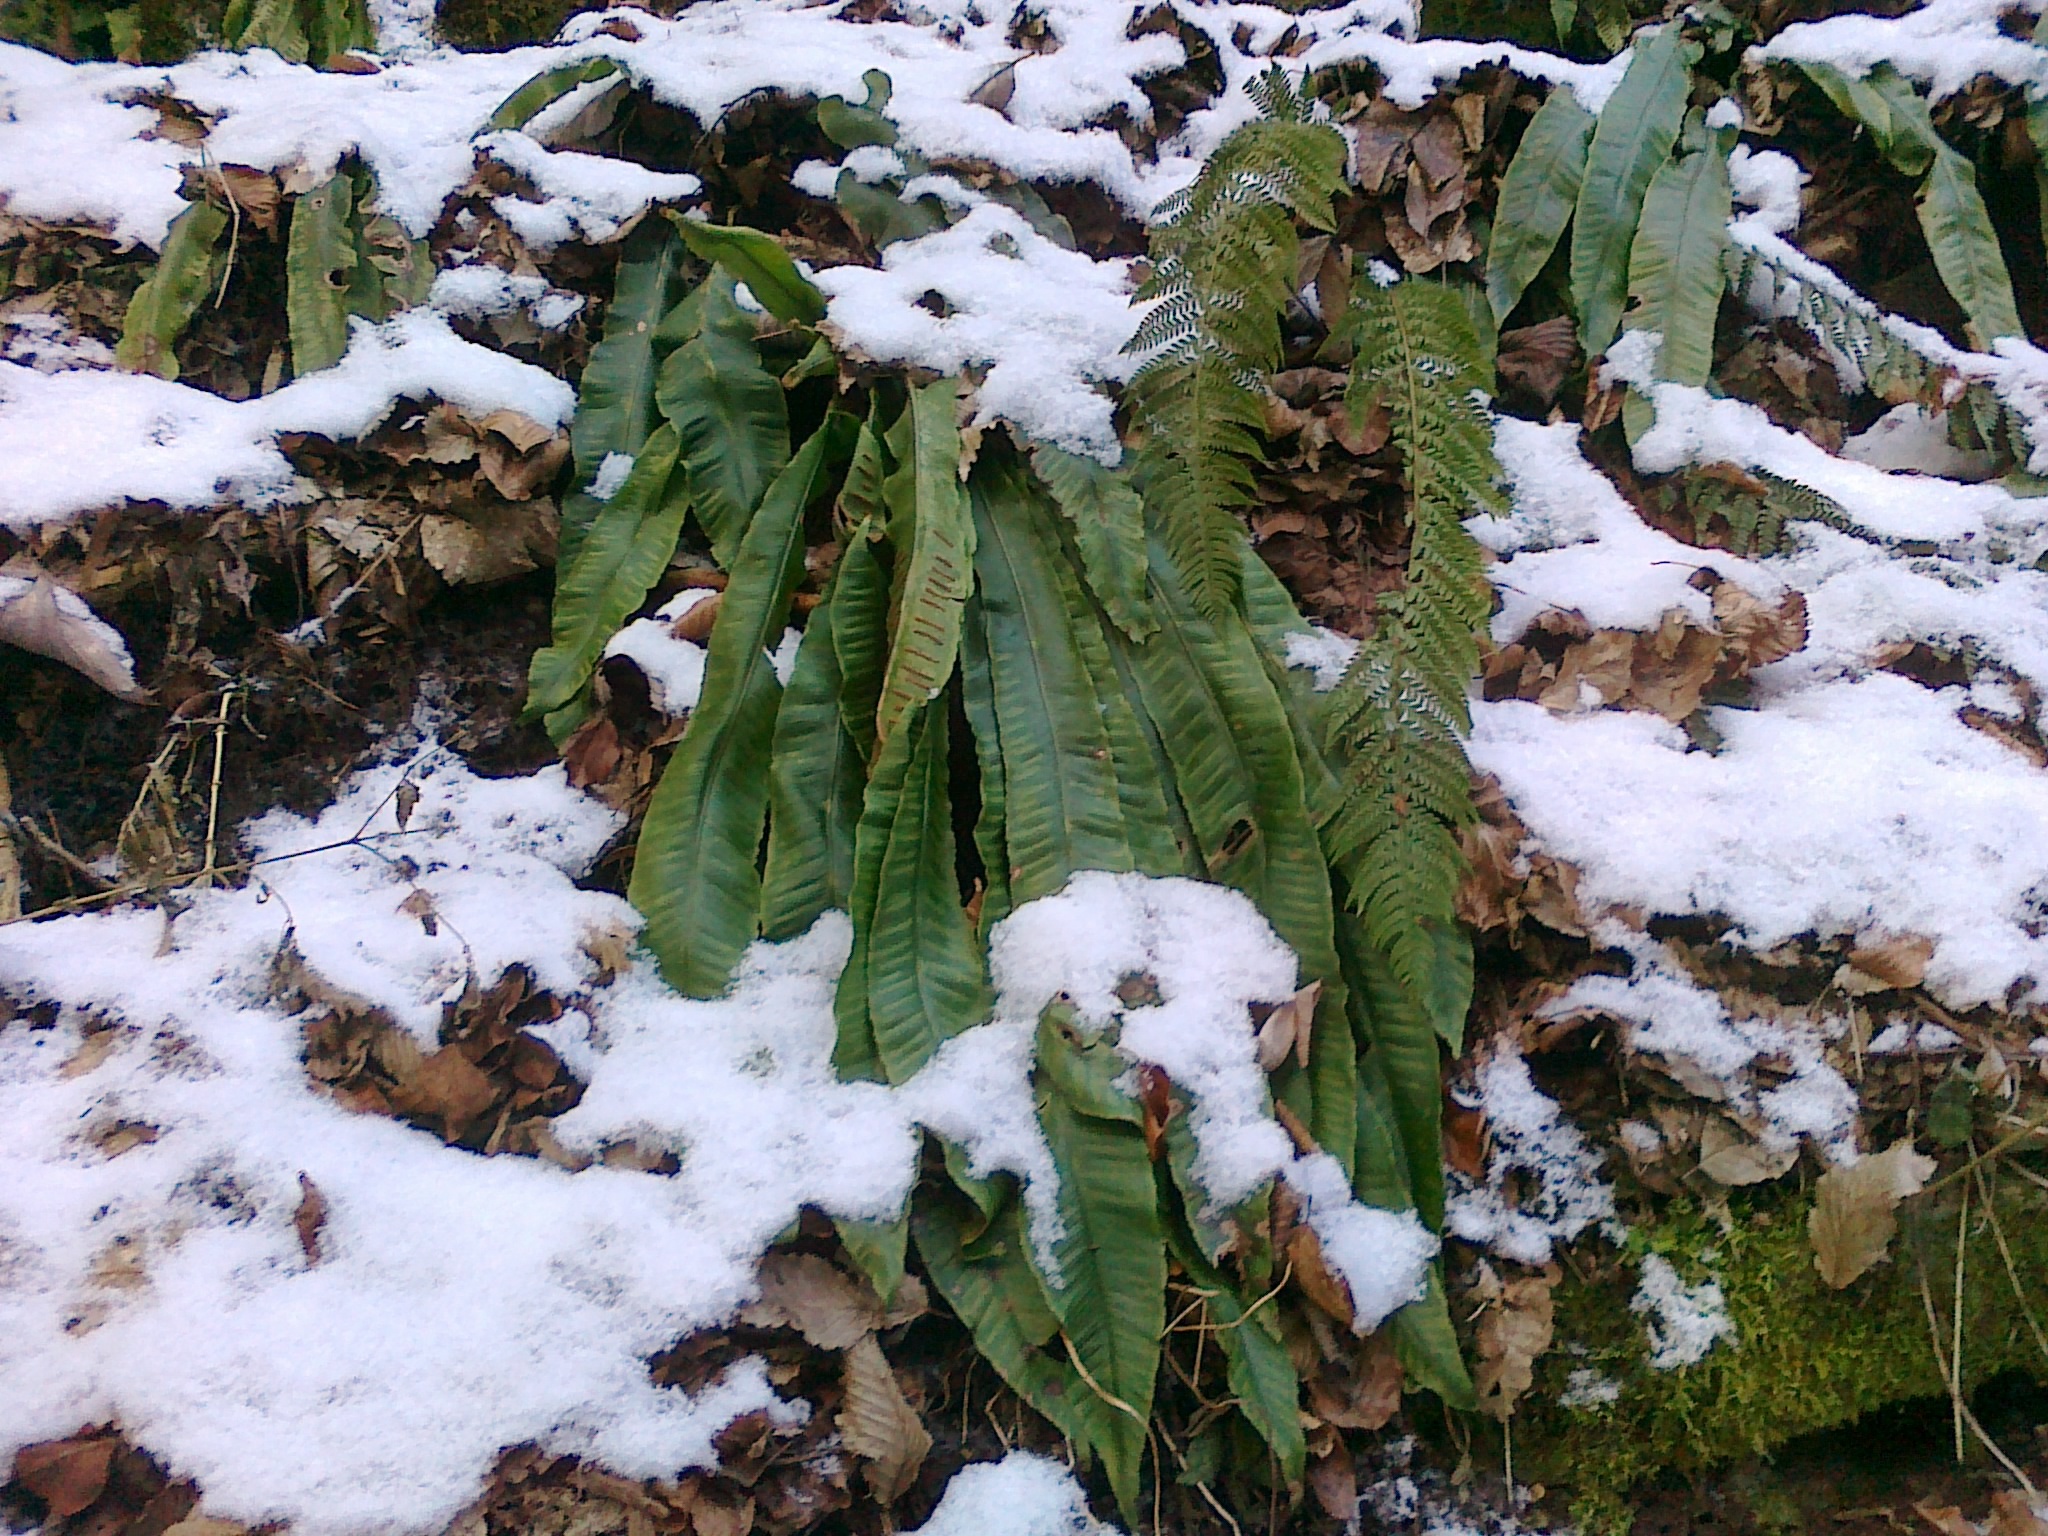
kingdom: Plantae
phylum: Tracheophyta
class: Polypodiopsida
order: Polypodiales
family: Aspleniaceae
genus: Asplenium
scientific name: Asplenium scolopendrium
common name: Hart's-tongue fern
